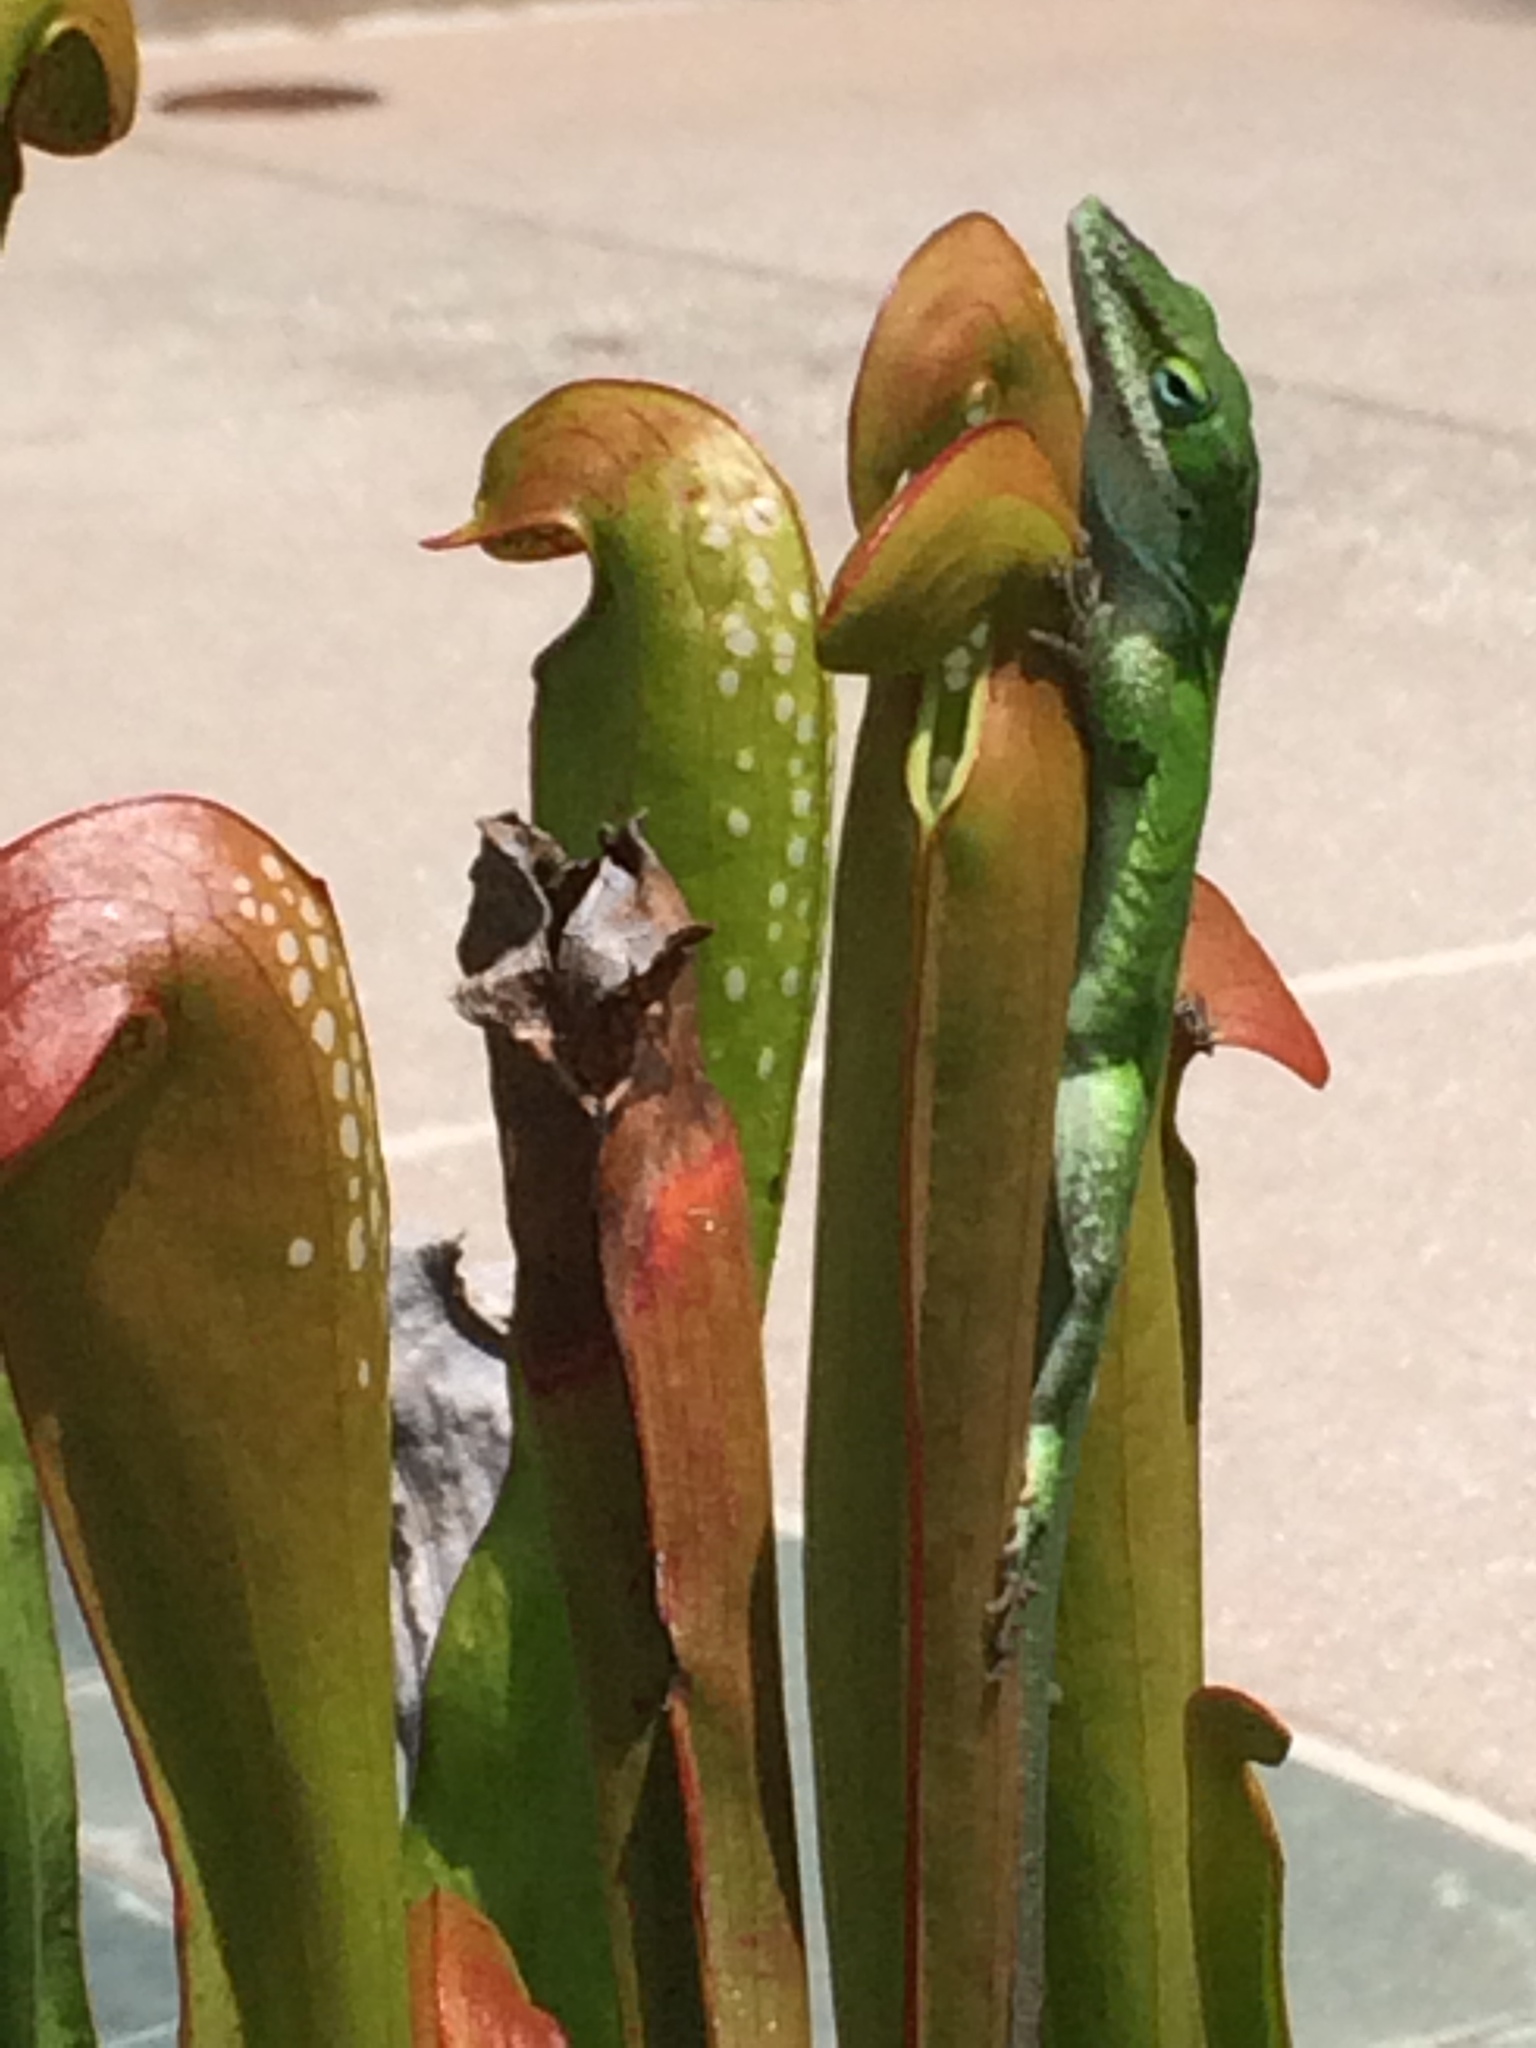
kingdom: Animalia
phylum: Chordata
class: Squamata
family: Dactyloidae
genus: Anolis
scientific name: Anolis carolinensis
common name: Green anole
